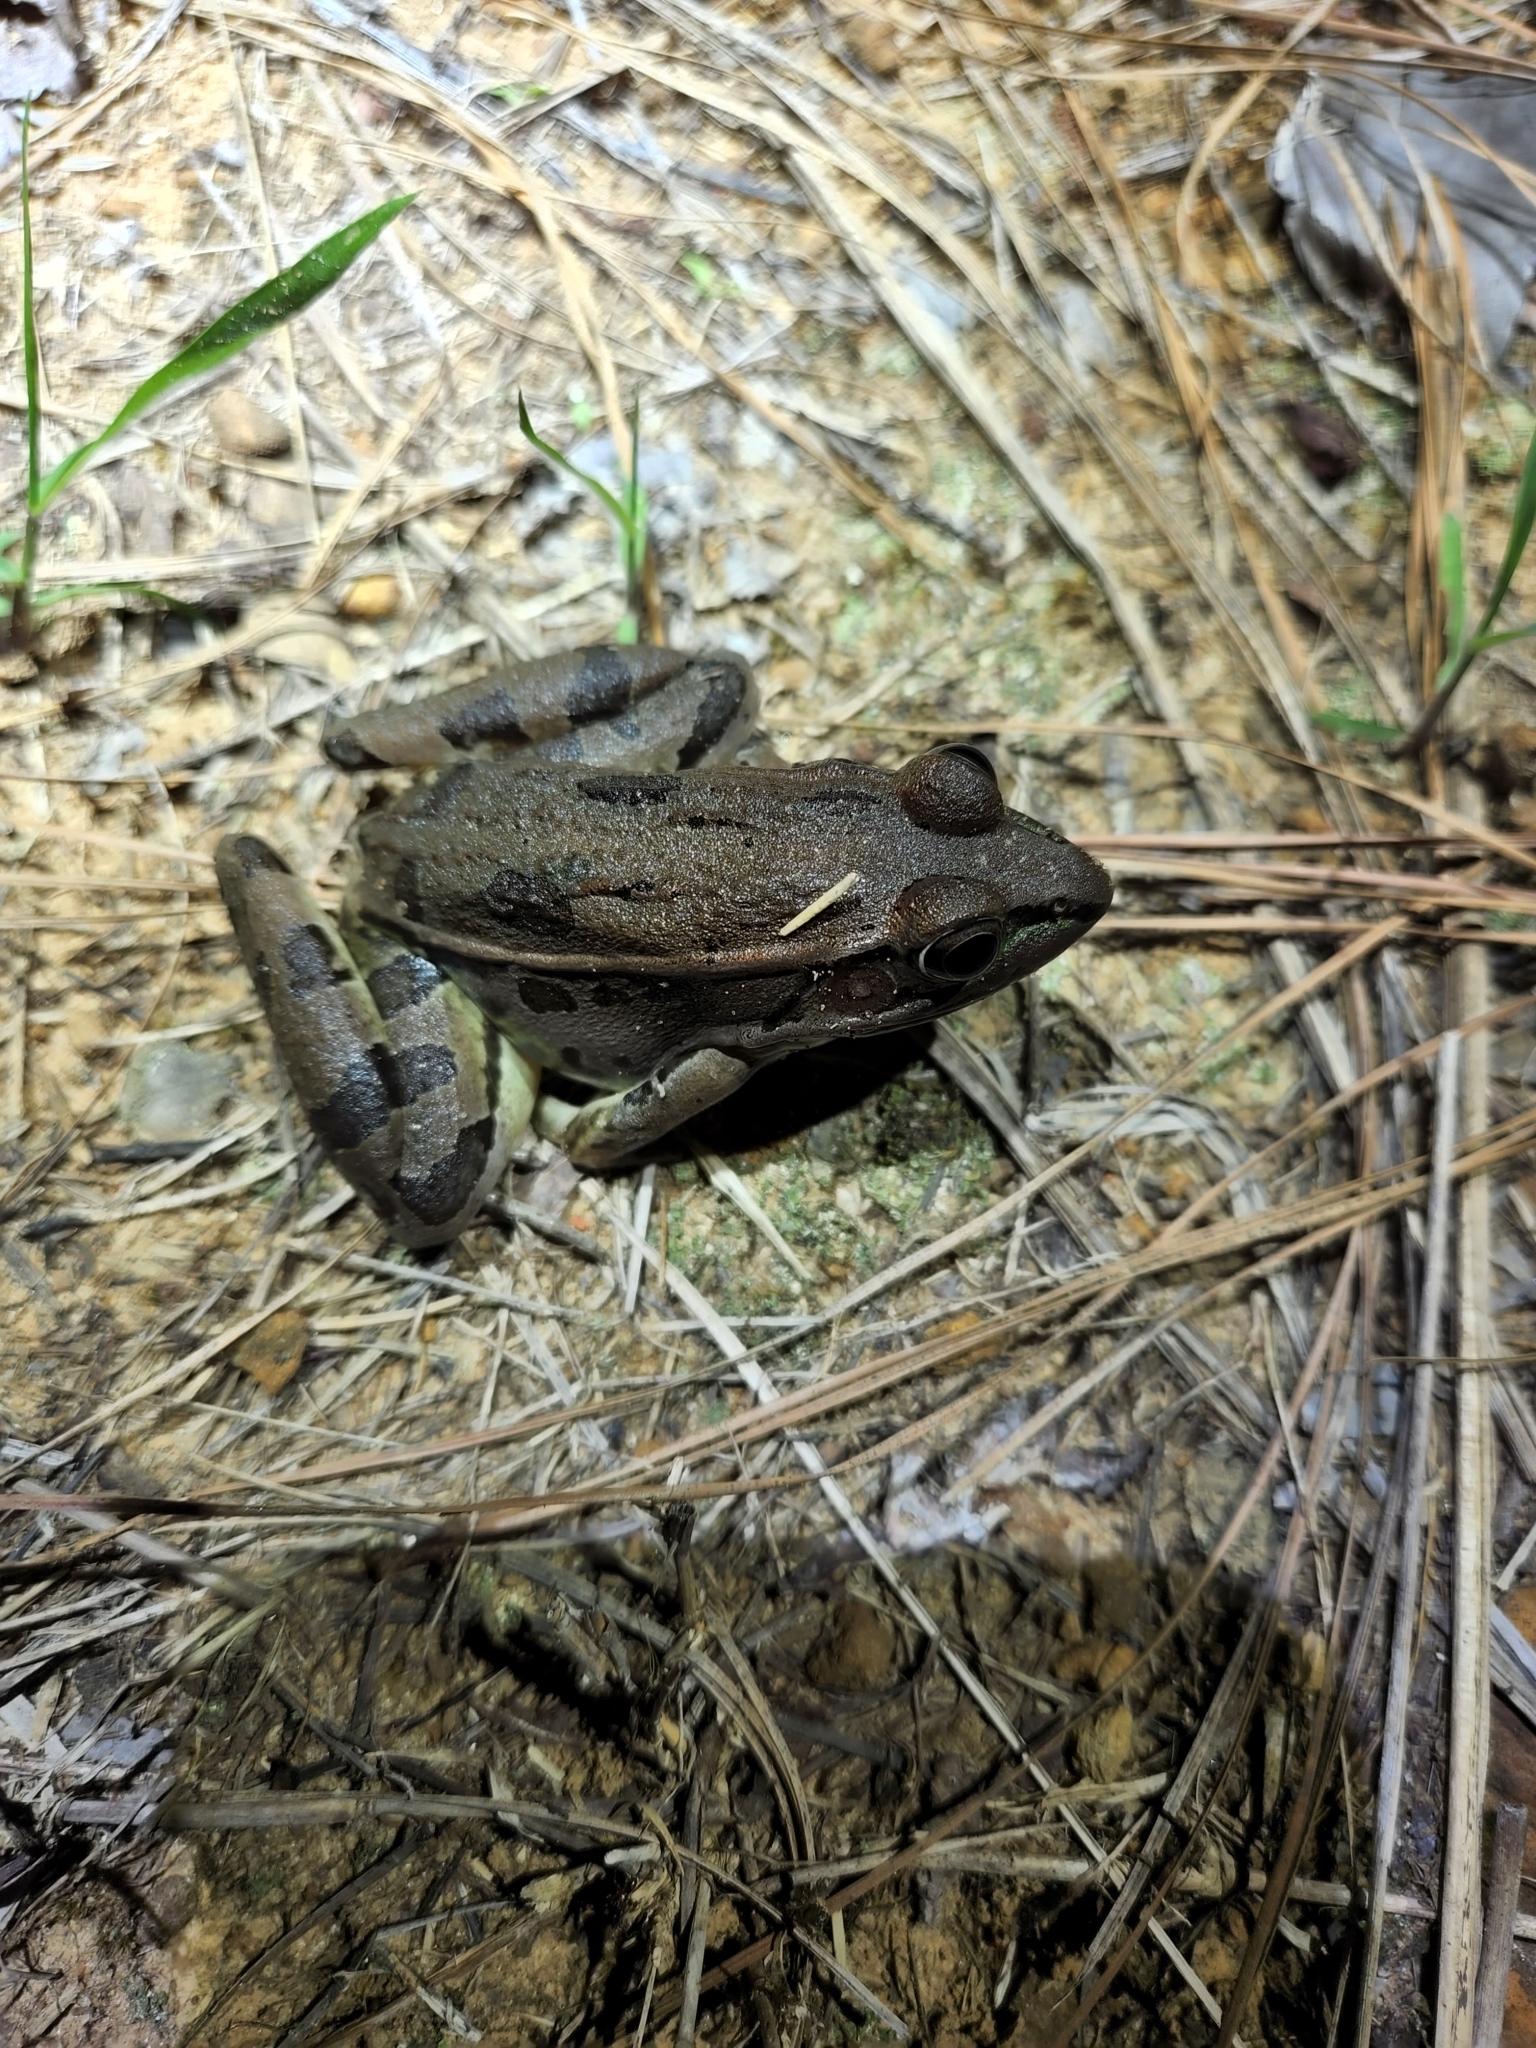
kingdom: Animalia
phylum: Chordata
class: Amphibia
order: Anura
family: Ranidae
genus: Lithobates
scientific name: Lithobates sphenocephalus
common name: Southern leopard frog
